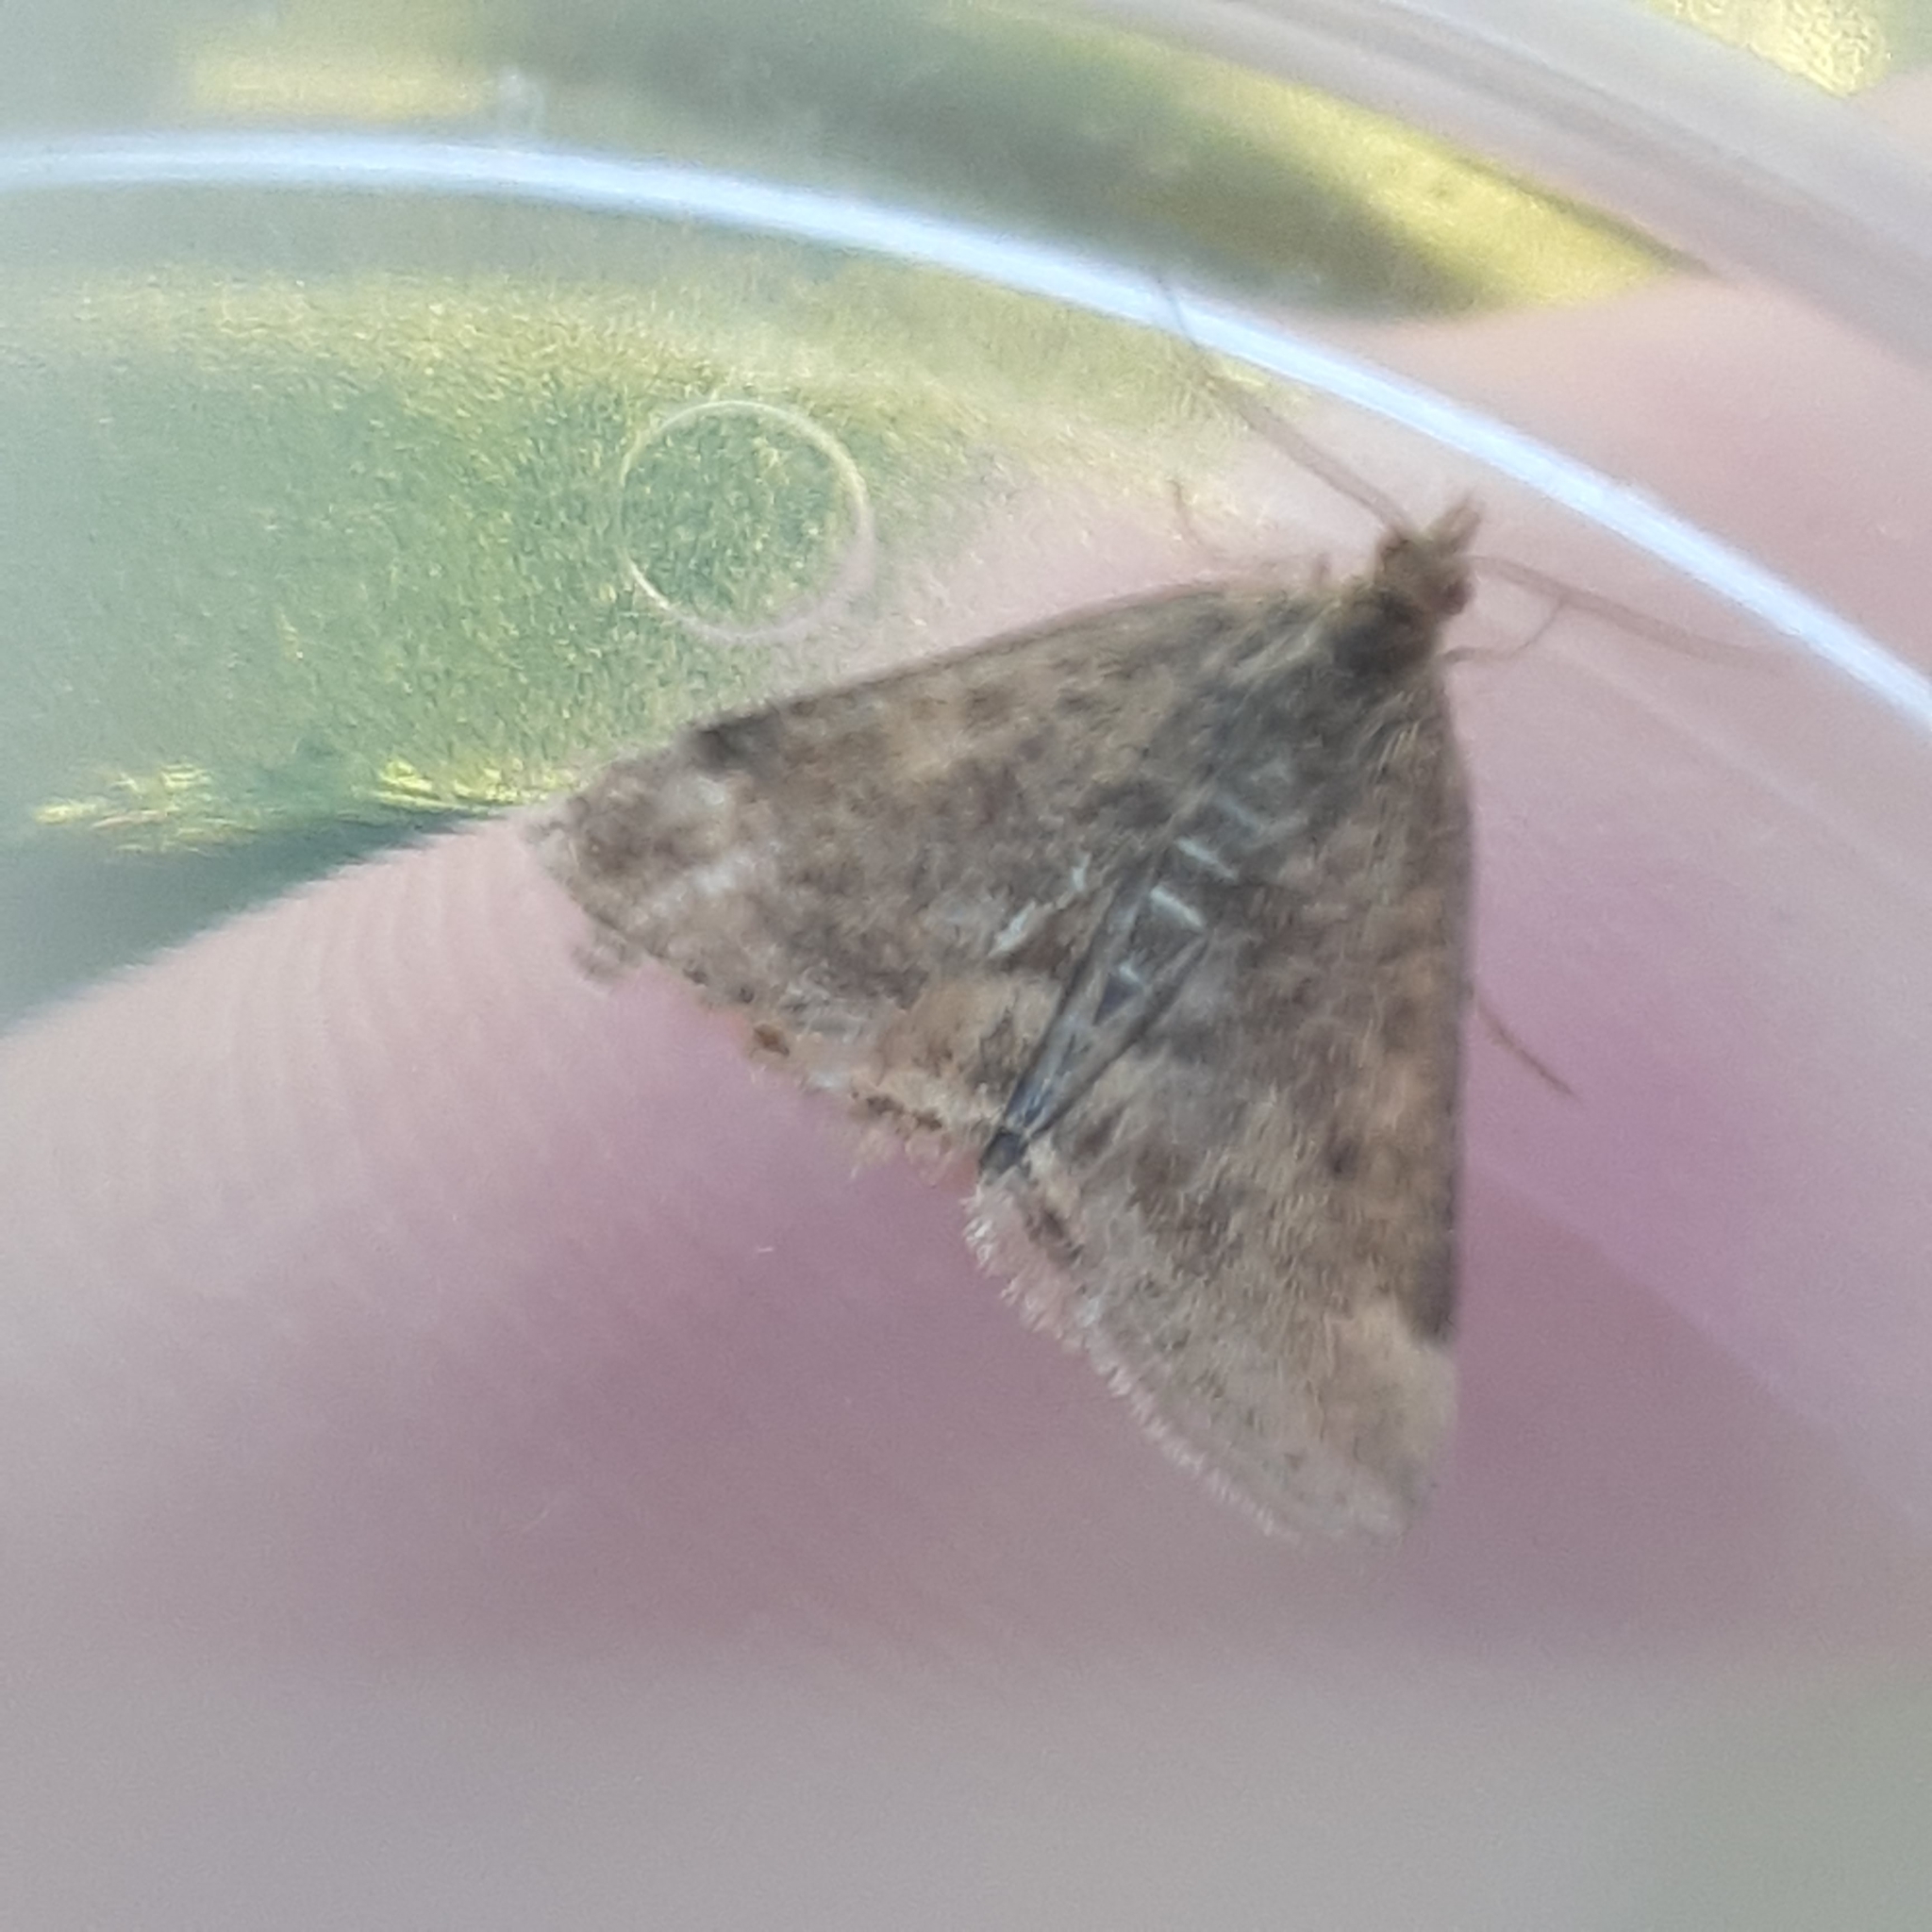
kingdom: Animalia
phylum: Arthropoda
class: Insecta
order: Lepidoptera
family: Crambidae
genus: Pyrausta
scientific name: Pyrausta despicata
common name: Straw-barred pearl
